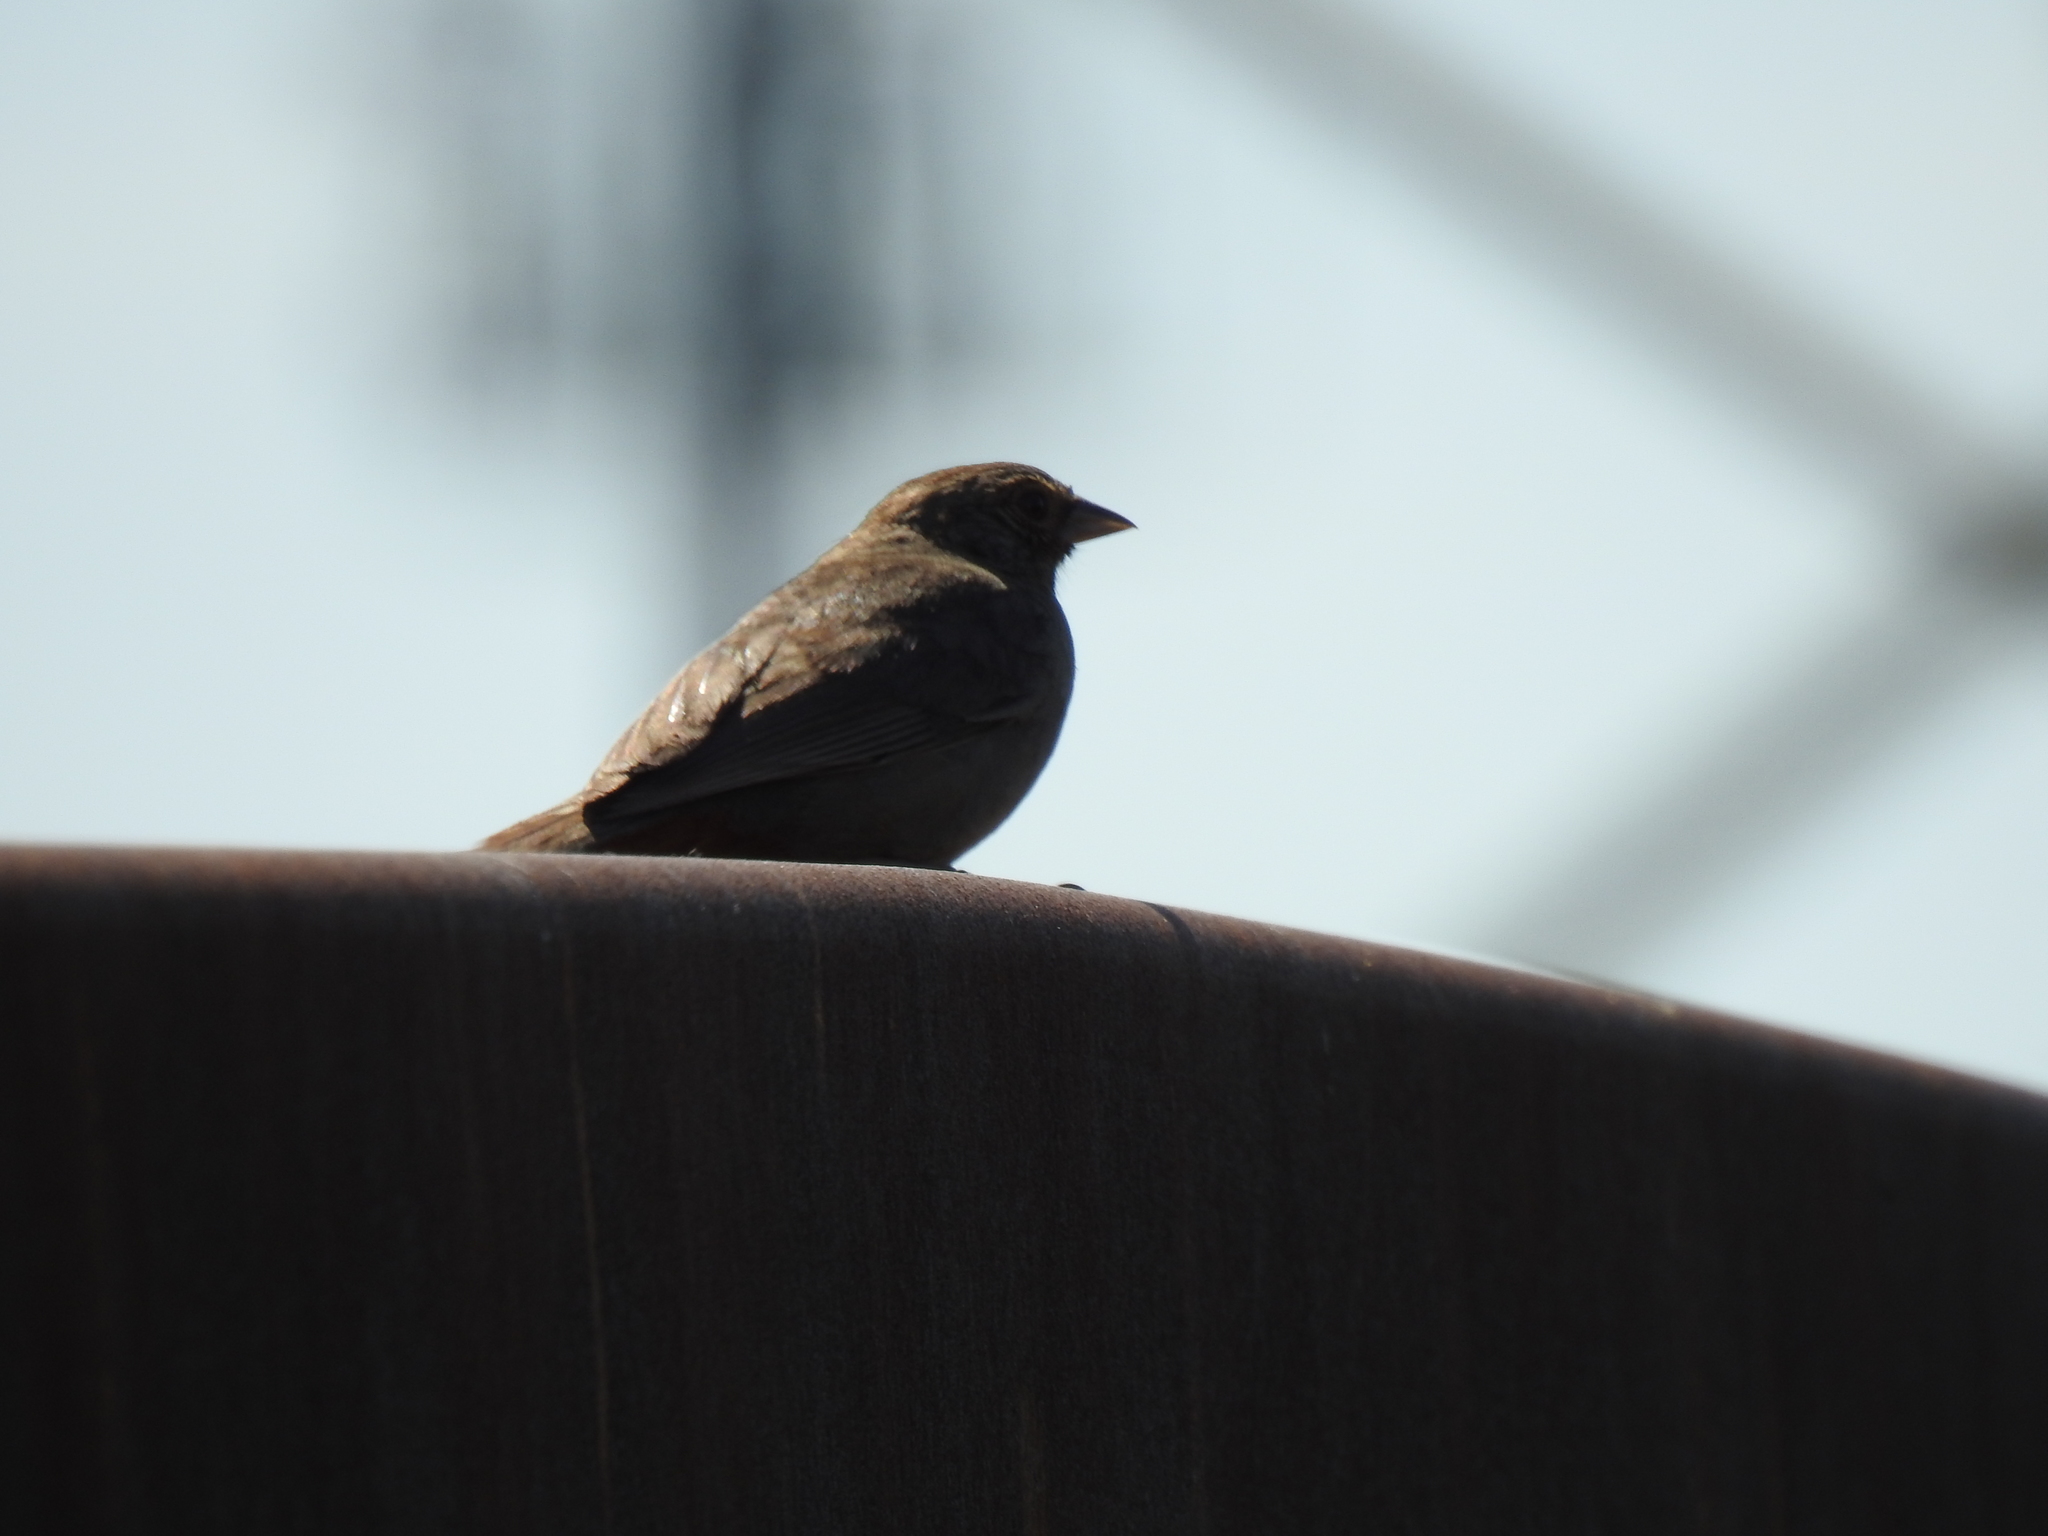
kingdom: Animalia
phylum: Chordata
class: Aves
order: Passeriformes
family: Passerellidae
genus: Melozone
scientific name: Melozone crissalis
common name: California towhee
